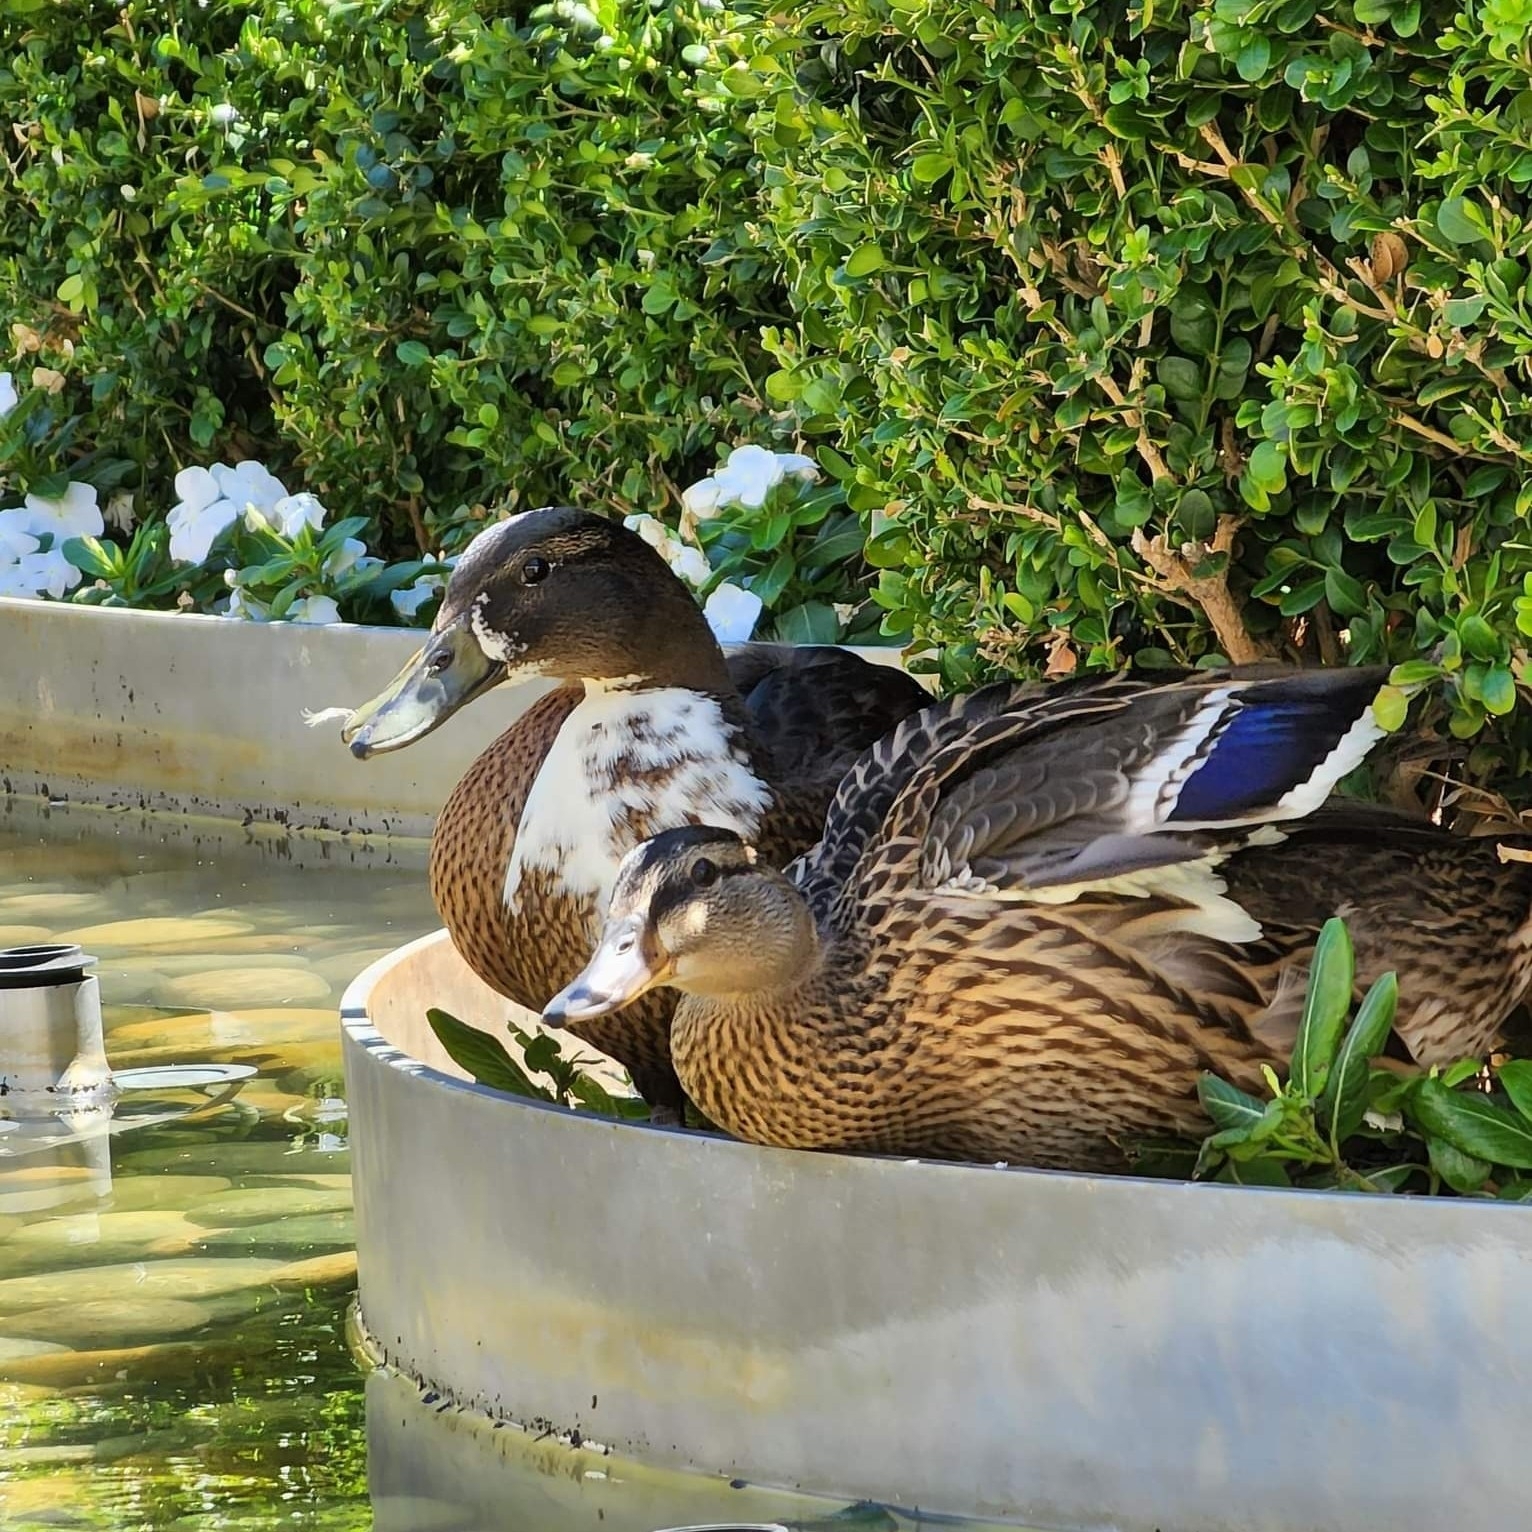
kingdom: Animalia
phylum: Chordata
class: Aves
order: Anseriformes
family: Anatidae
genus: Anas
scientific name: Anas platyrhynchos
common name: Mallard
